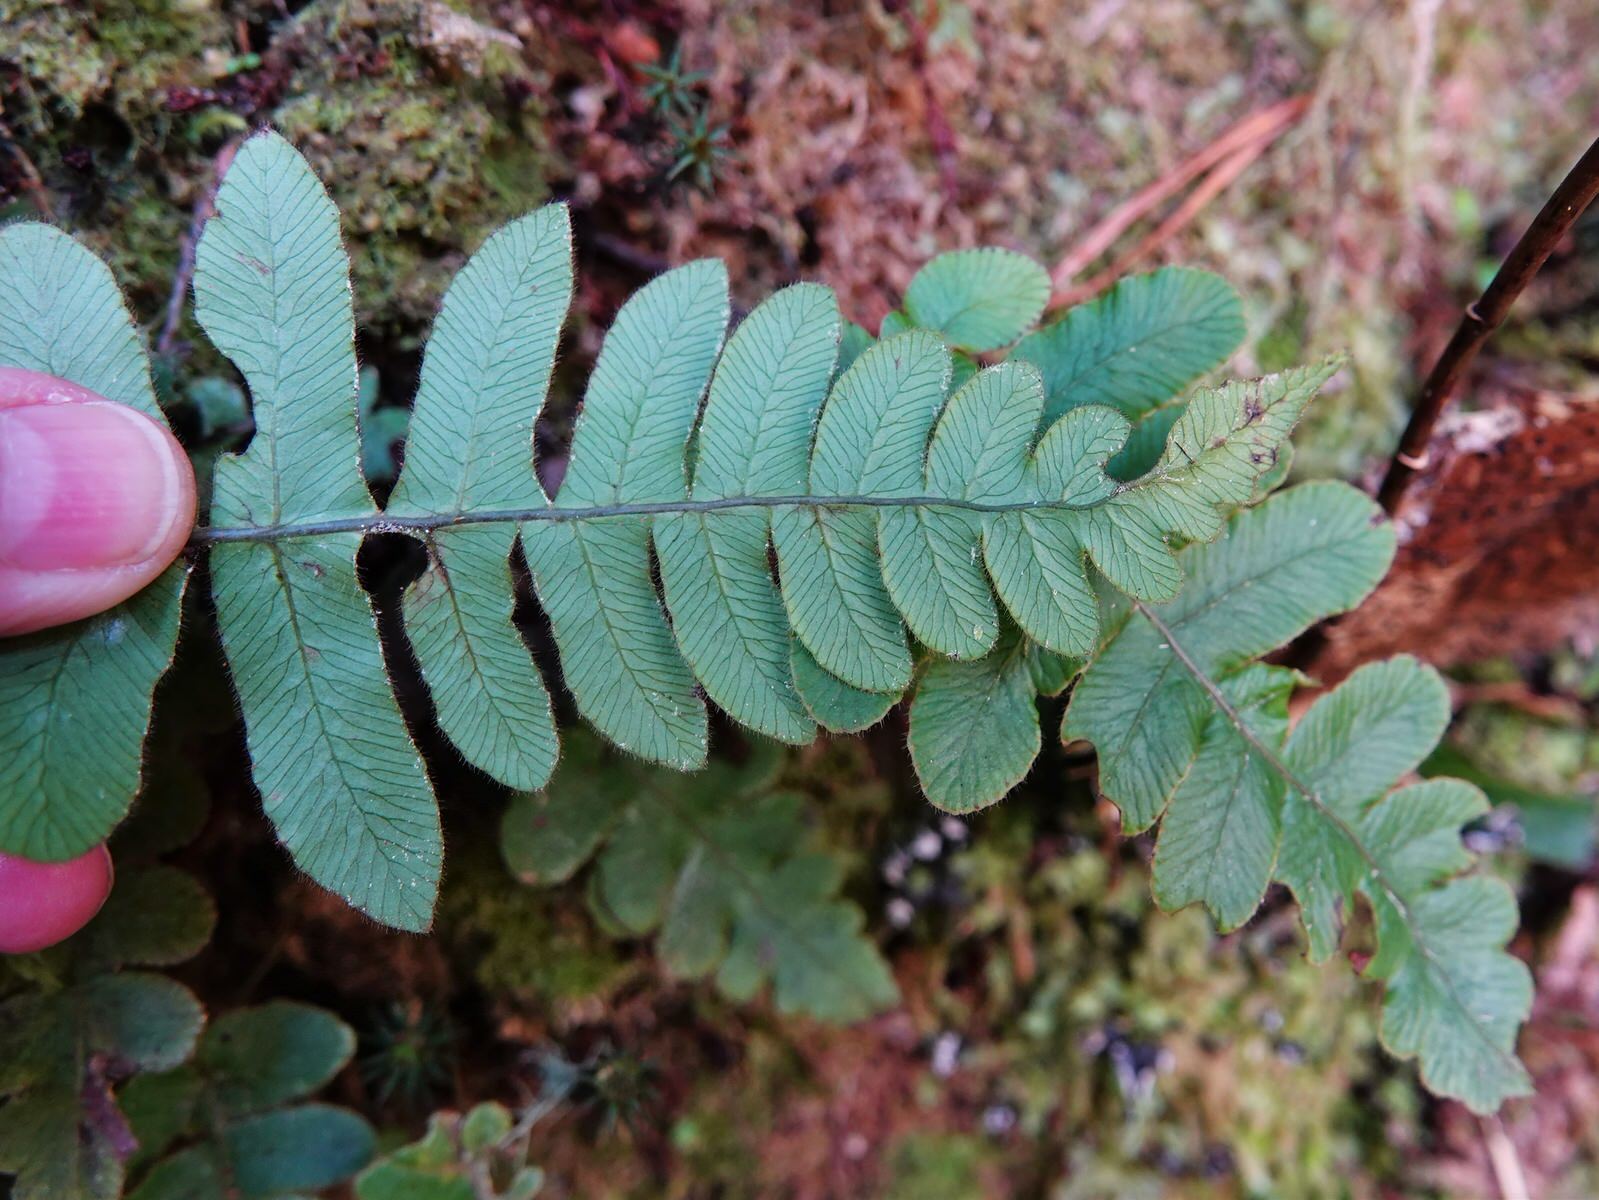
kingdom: Plantae
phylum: Tracheophyta
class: Polypodiopsida
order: Polypodiales
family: Blechnaceae
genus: Cranfillia
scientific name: Cranfillia deltoides
